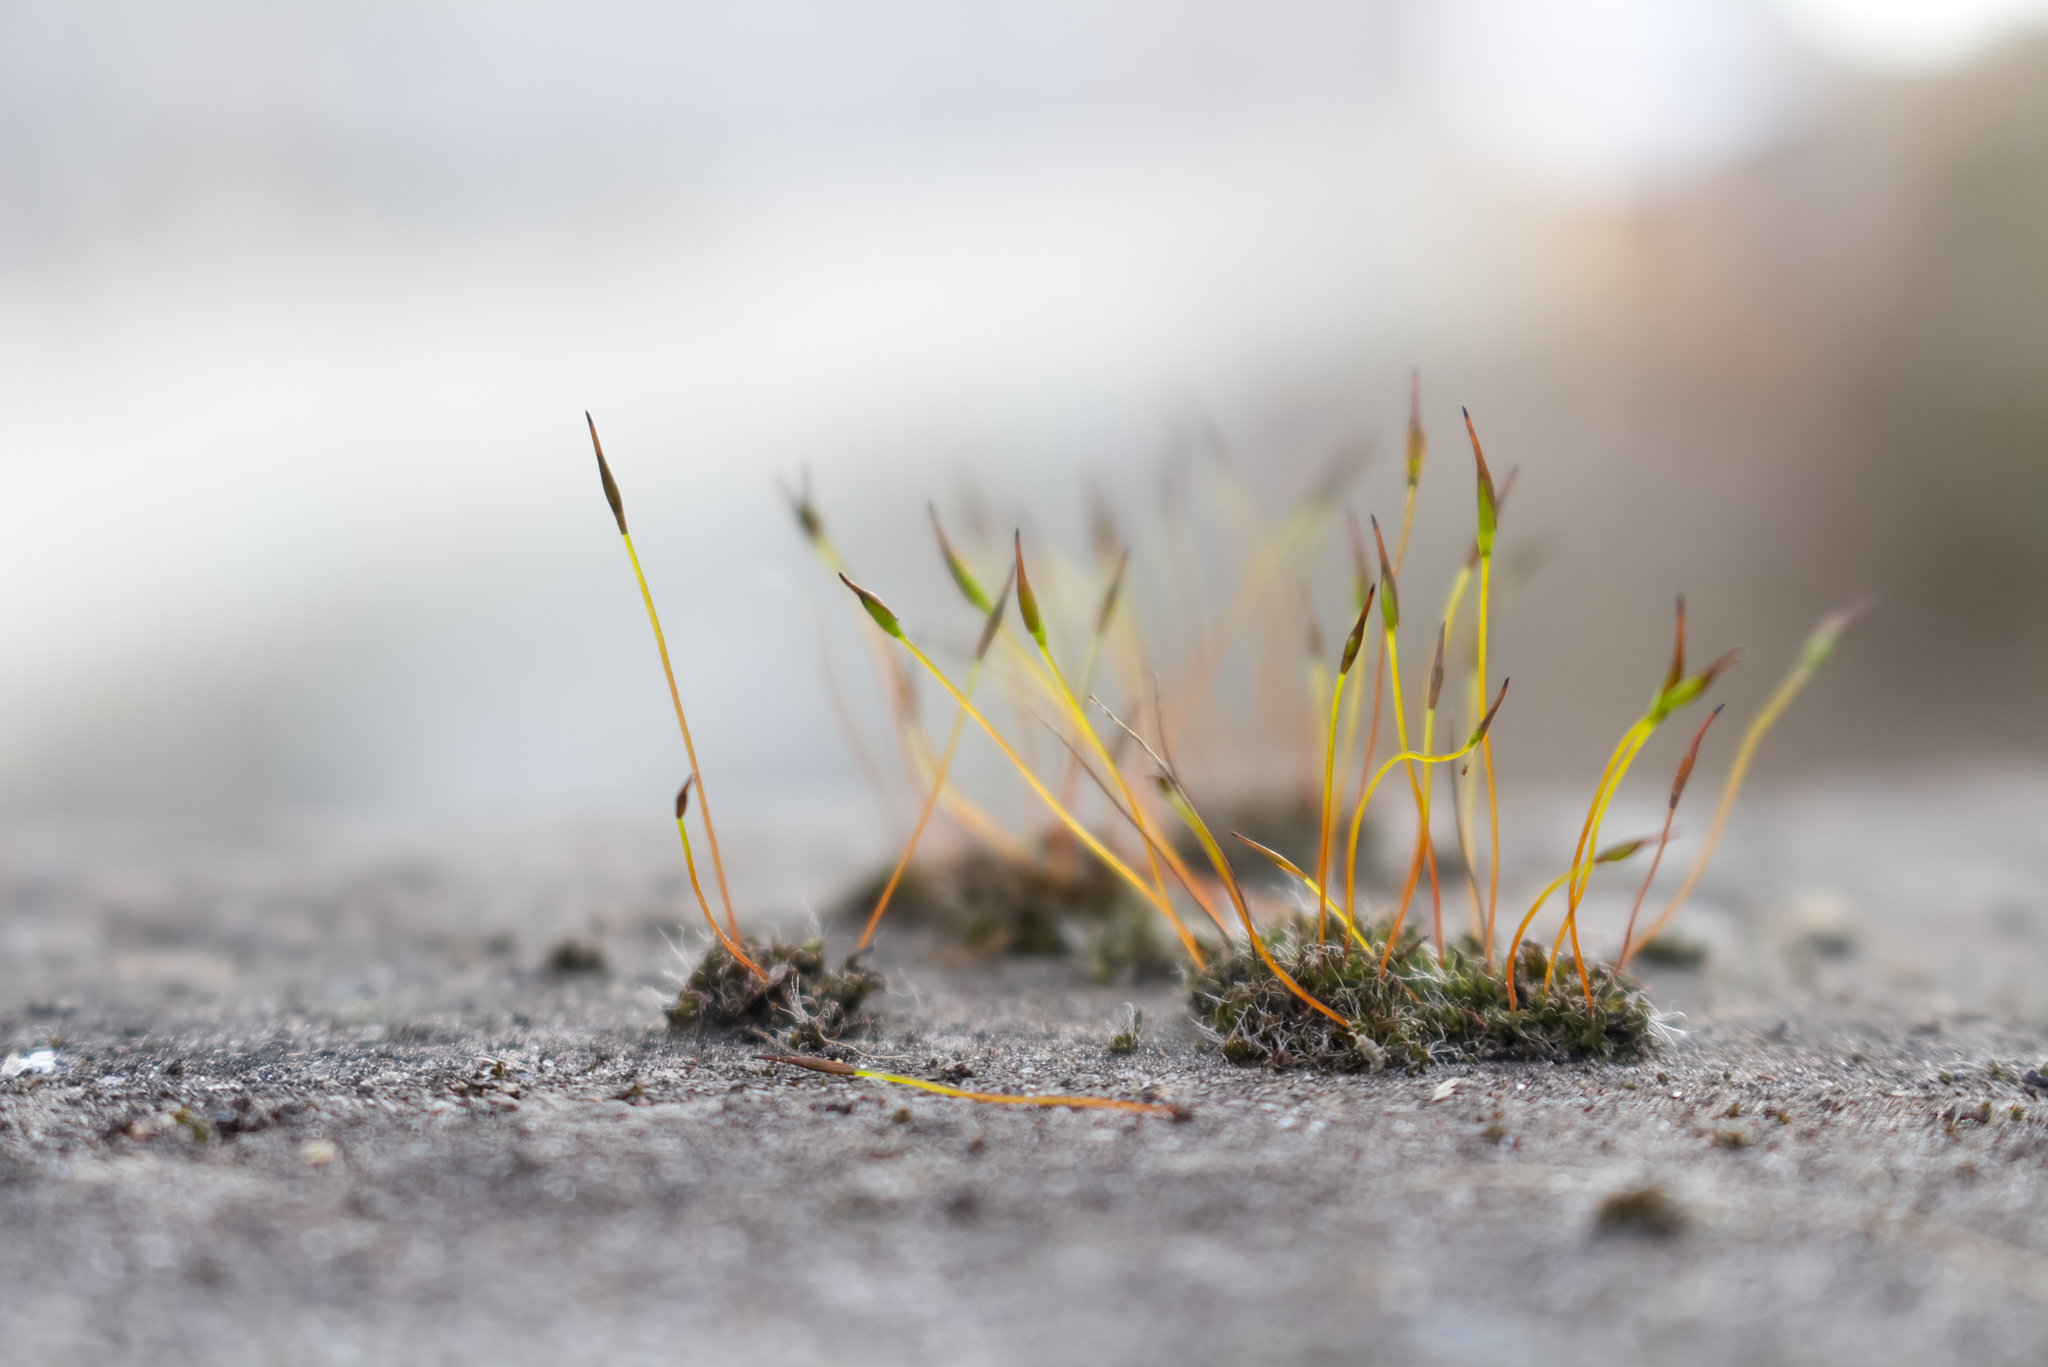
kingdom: Plantae
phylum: Bryophyta
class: Bryopsida
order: Pottiales
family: Pottiaceae
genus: Tortula
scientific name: Tortula muralis
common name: Wall screw-moss
